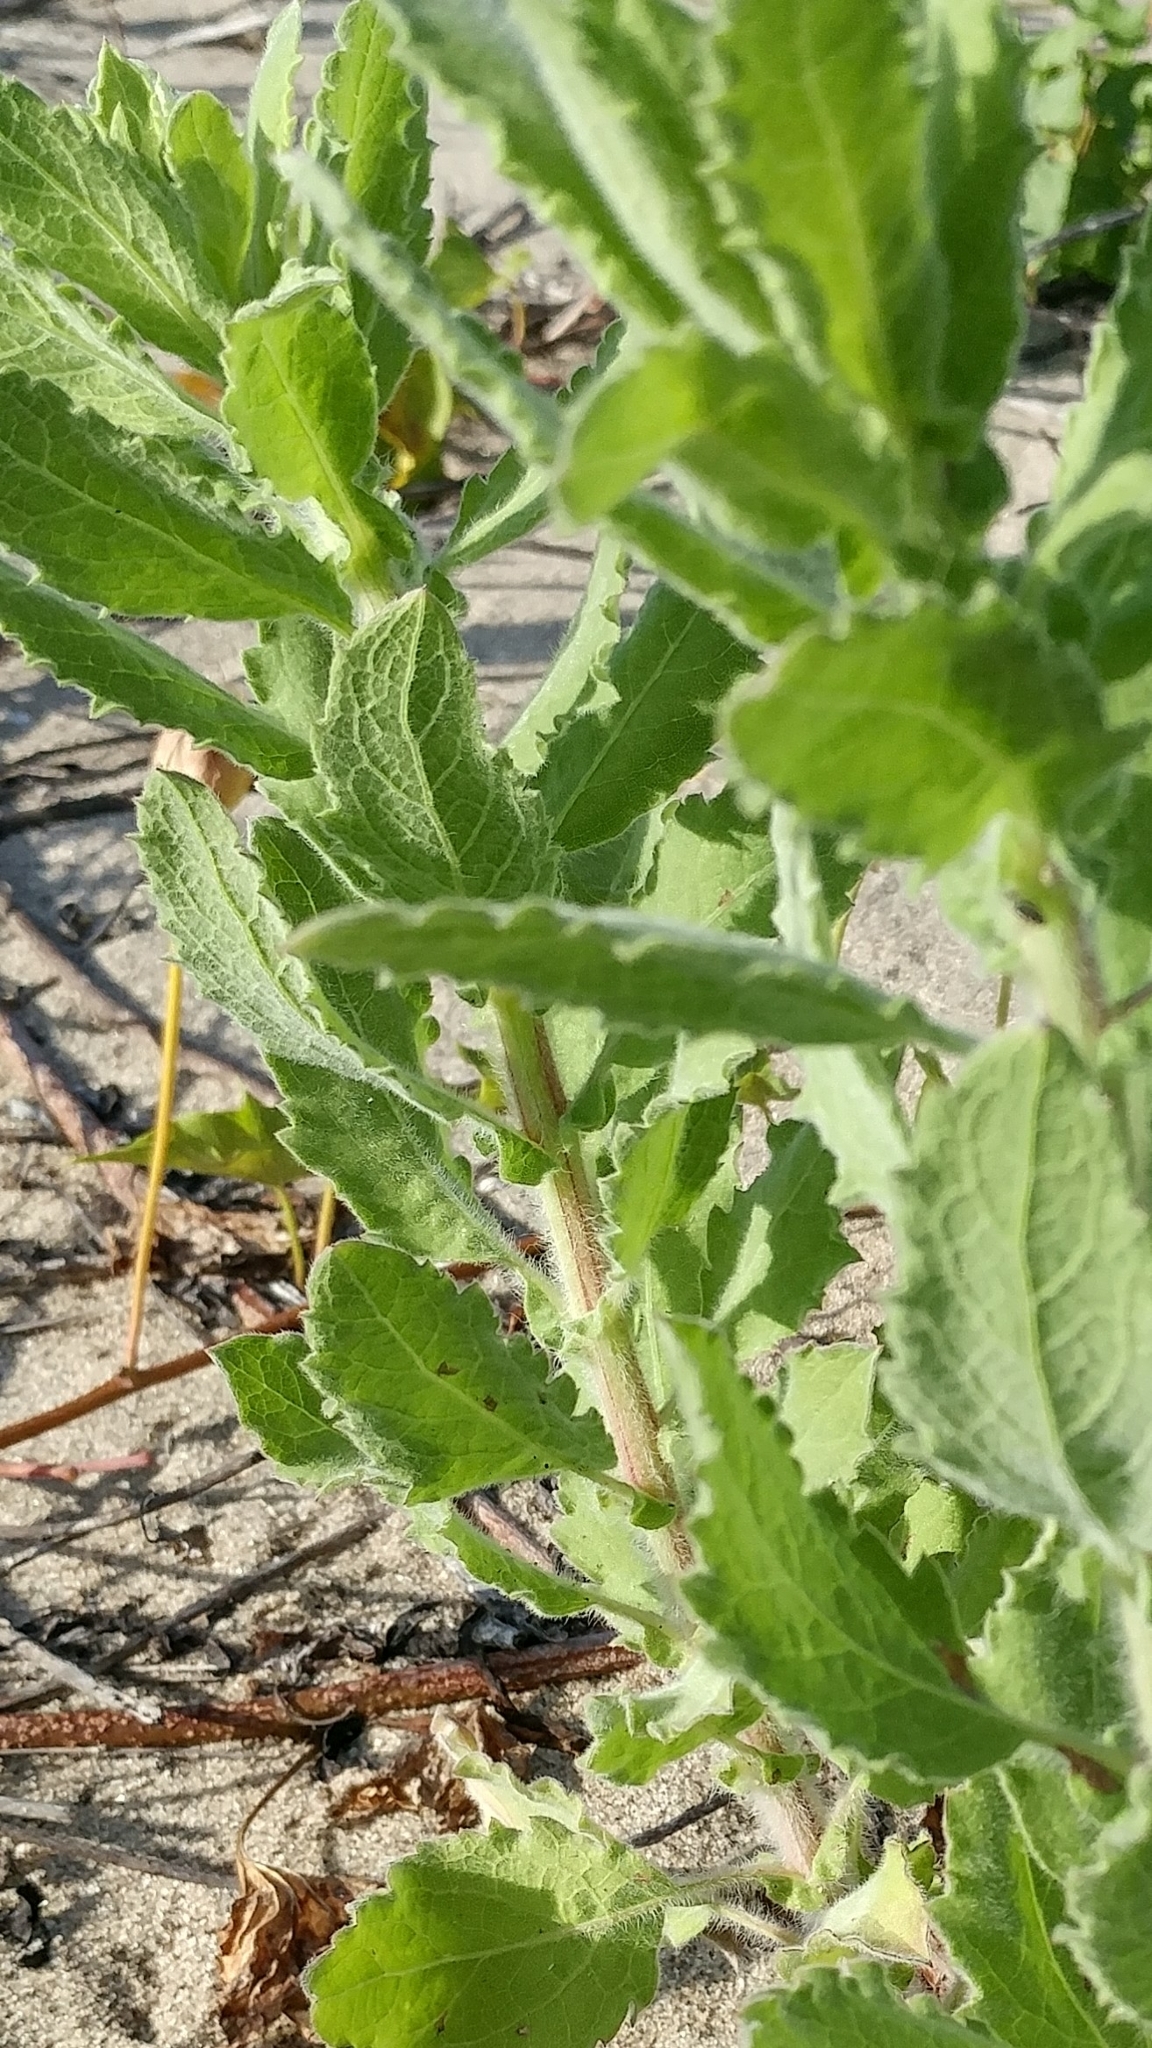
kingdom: Plantae
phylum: Tracheophyta
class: Magnoliopsida
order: Asterales
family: Asteraceae
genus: Heterotheca
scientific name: Heterotheca grandiflora
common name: Telegraphweed
